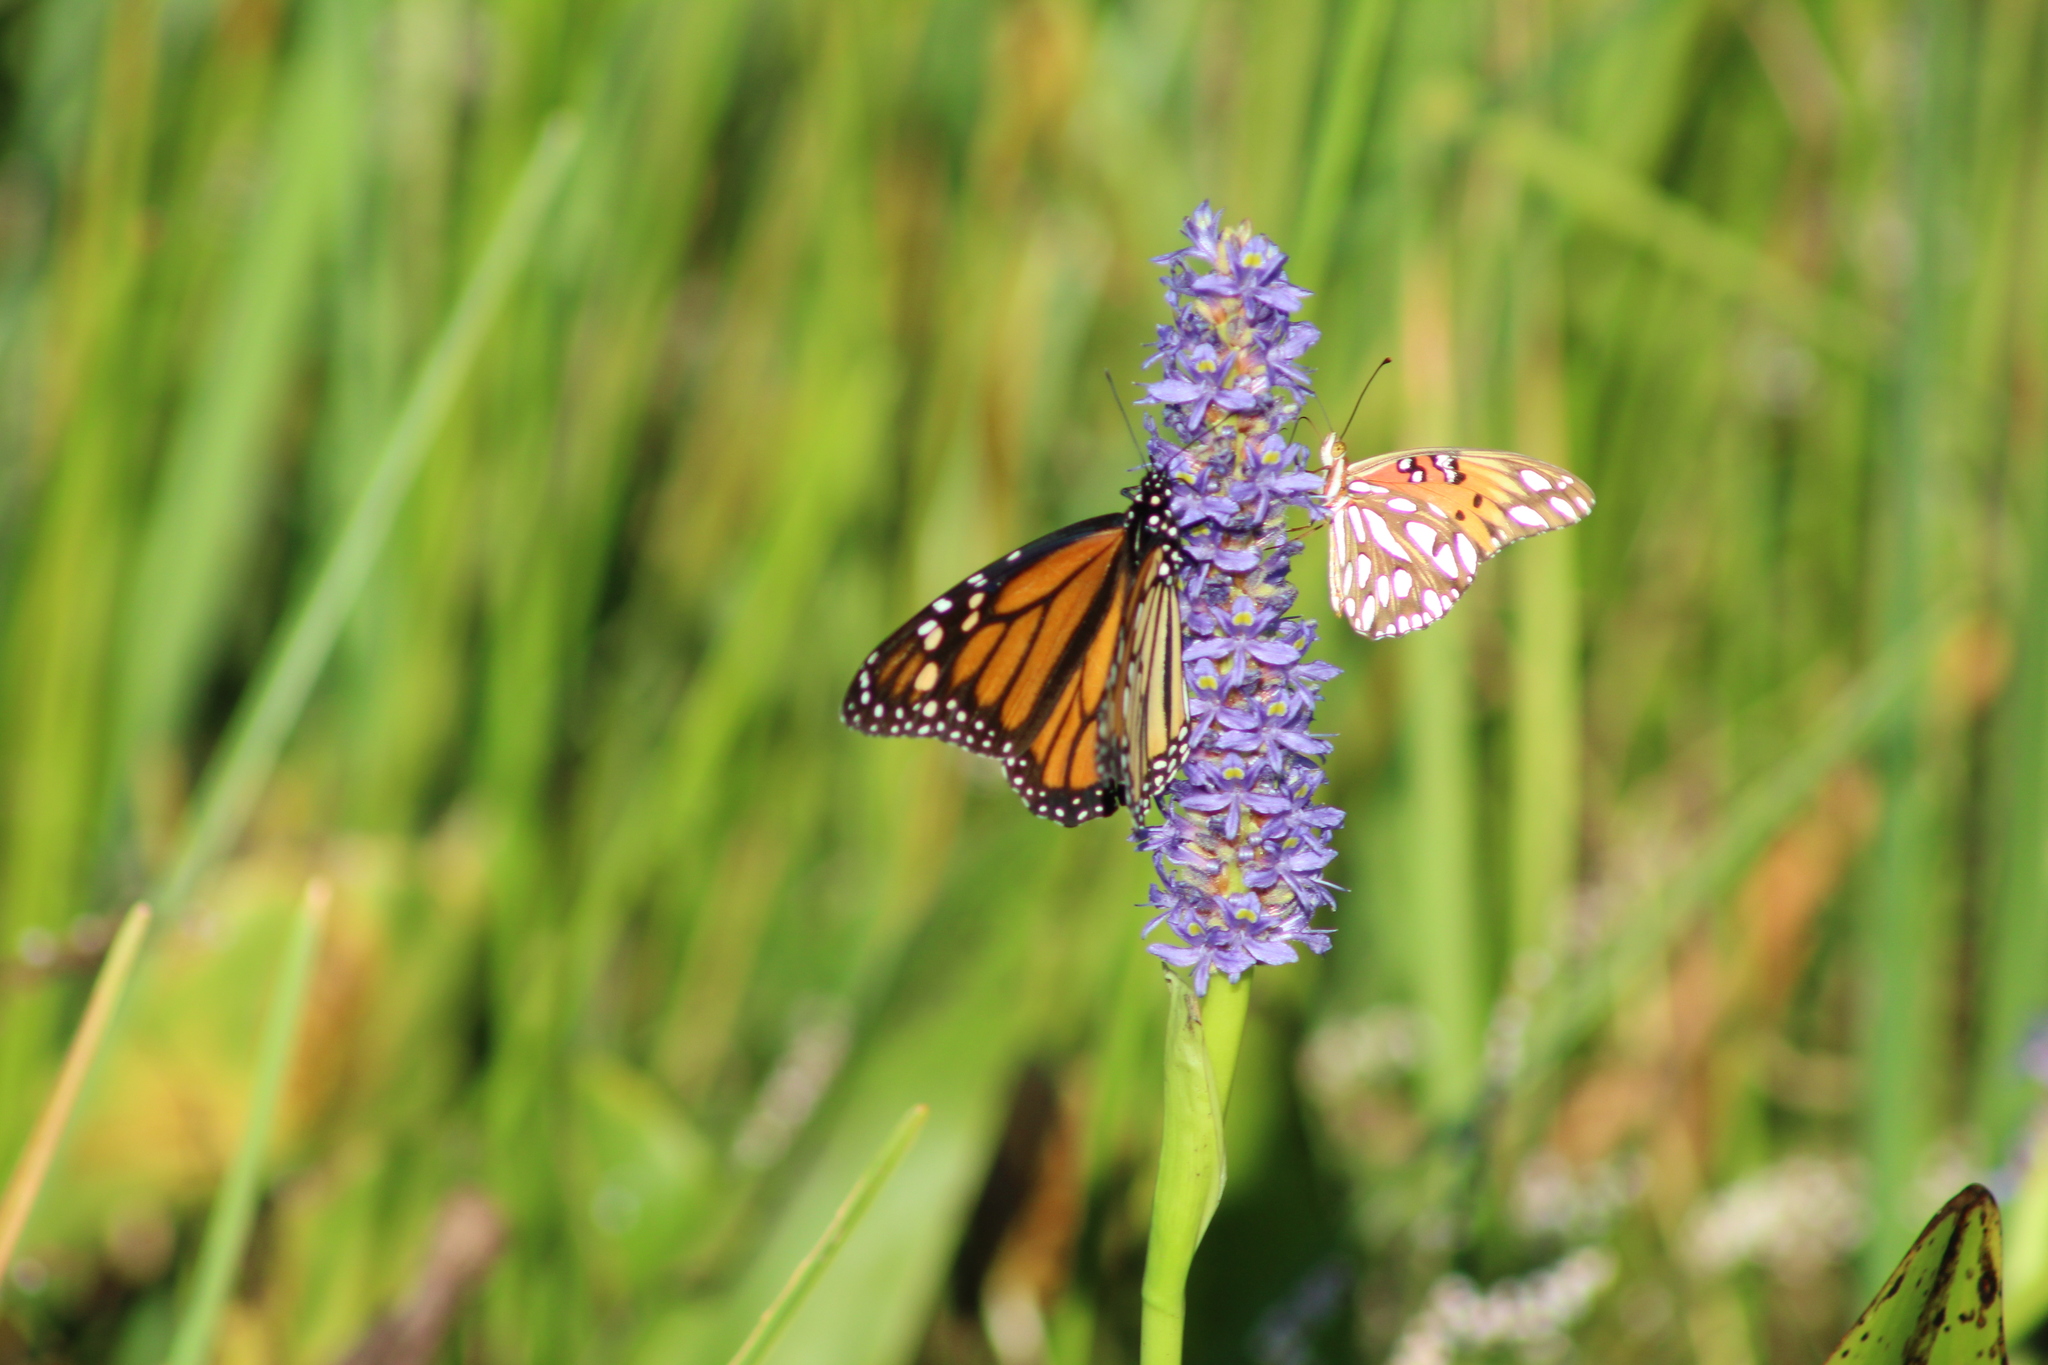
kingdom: Animalia
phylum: Arthropoda
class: Insecta
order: Lepidoptera
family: Nymphalidae
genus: Danaus
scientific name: Danaus plexippus
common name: Monarch
